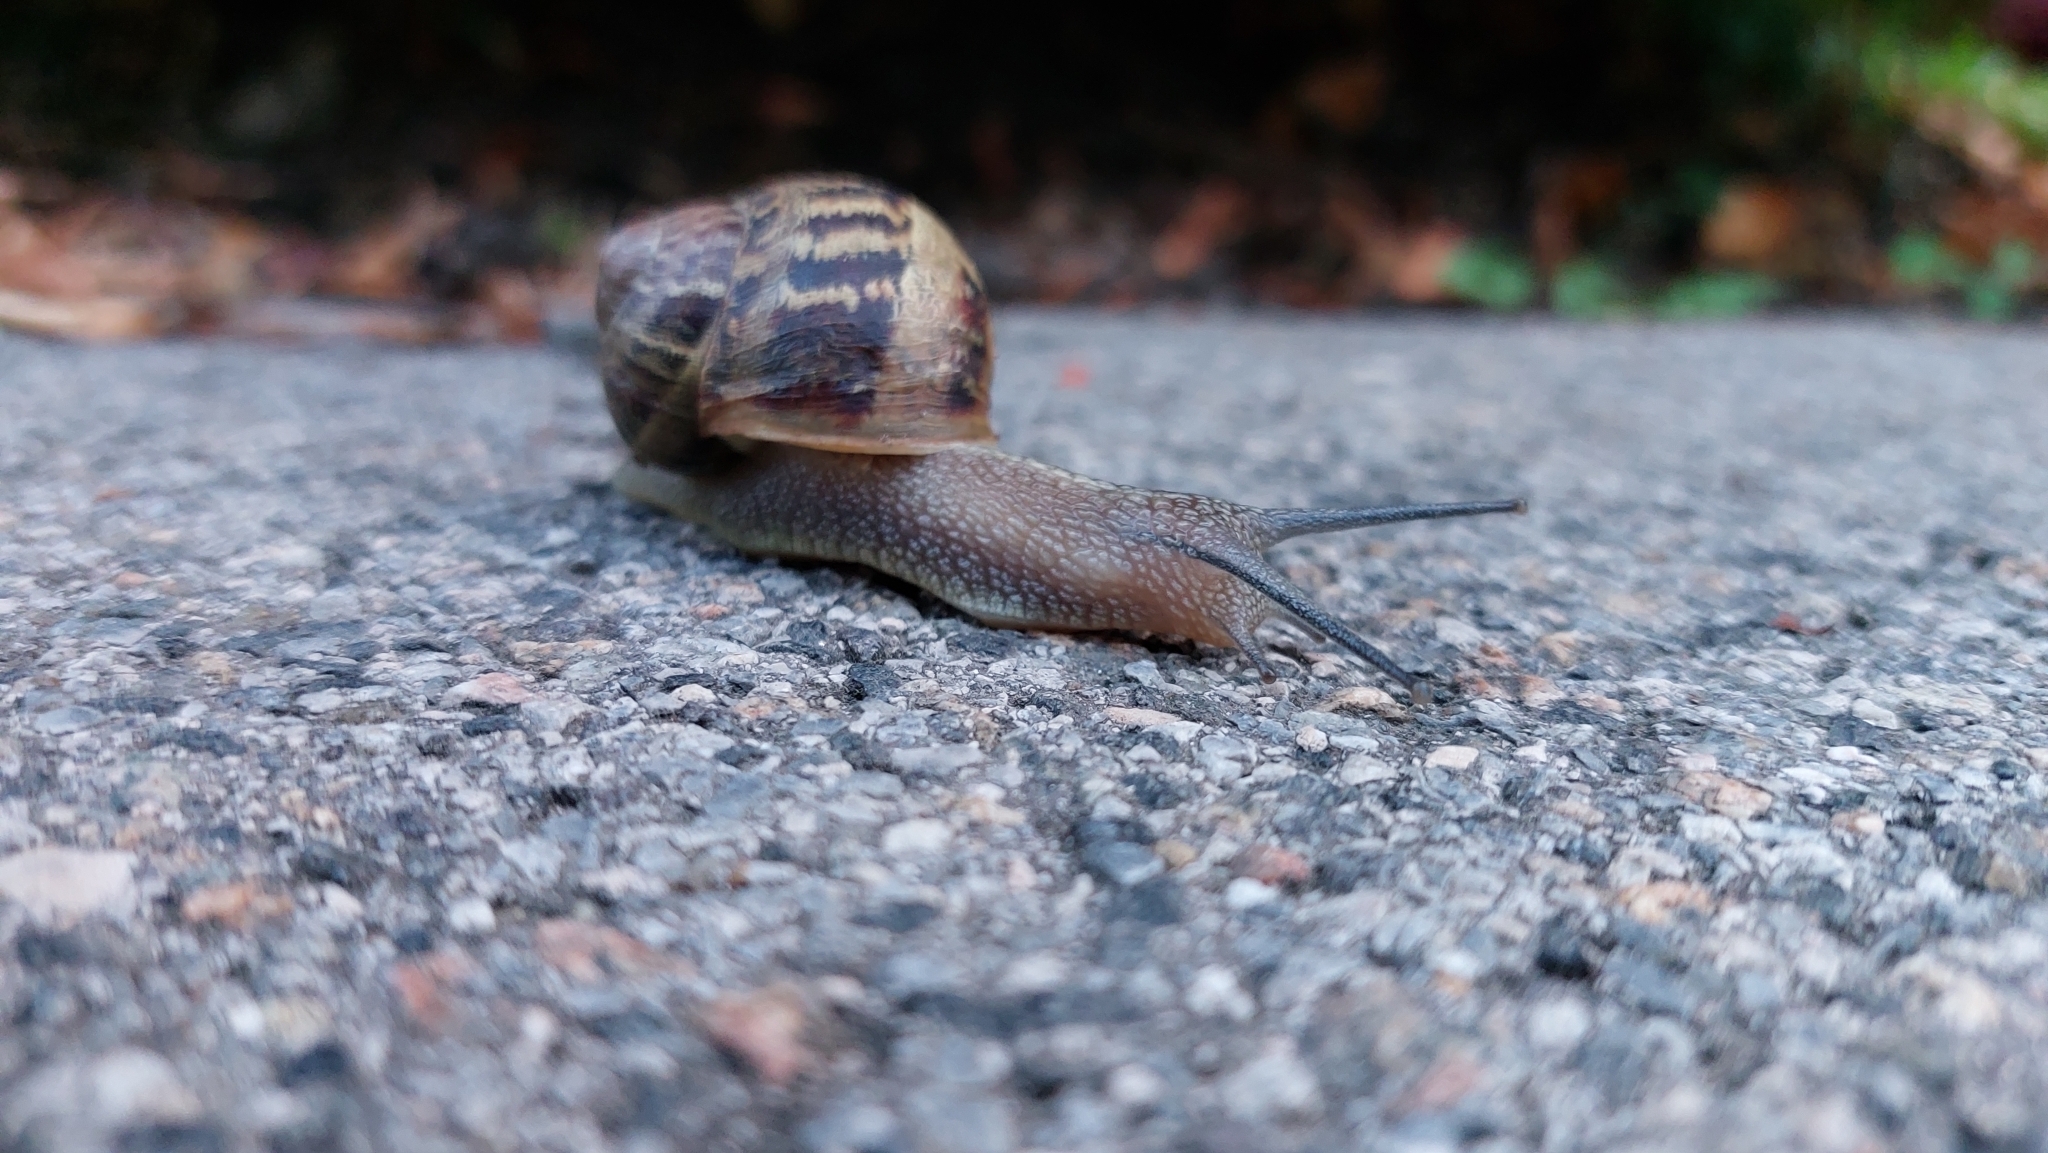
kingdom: Animalia
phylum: Mollusca
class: Gastropoda
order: Stylommatophora
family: Helicidae
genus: Cornu
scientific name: Cornu aspersum
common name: Brown garden snail
